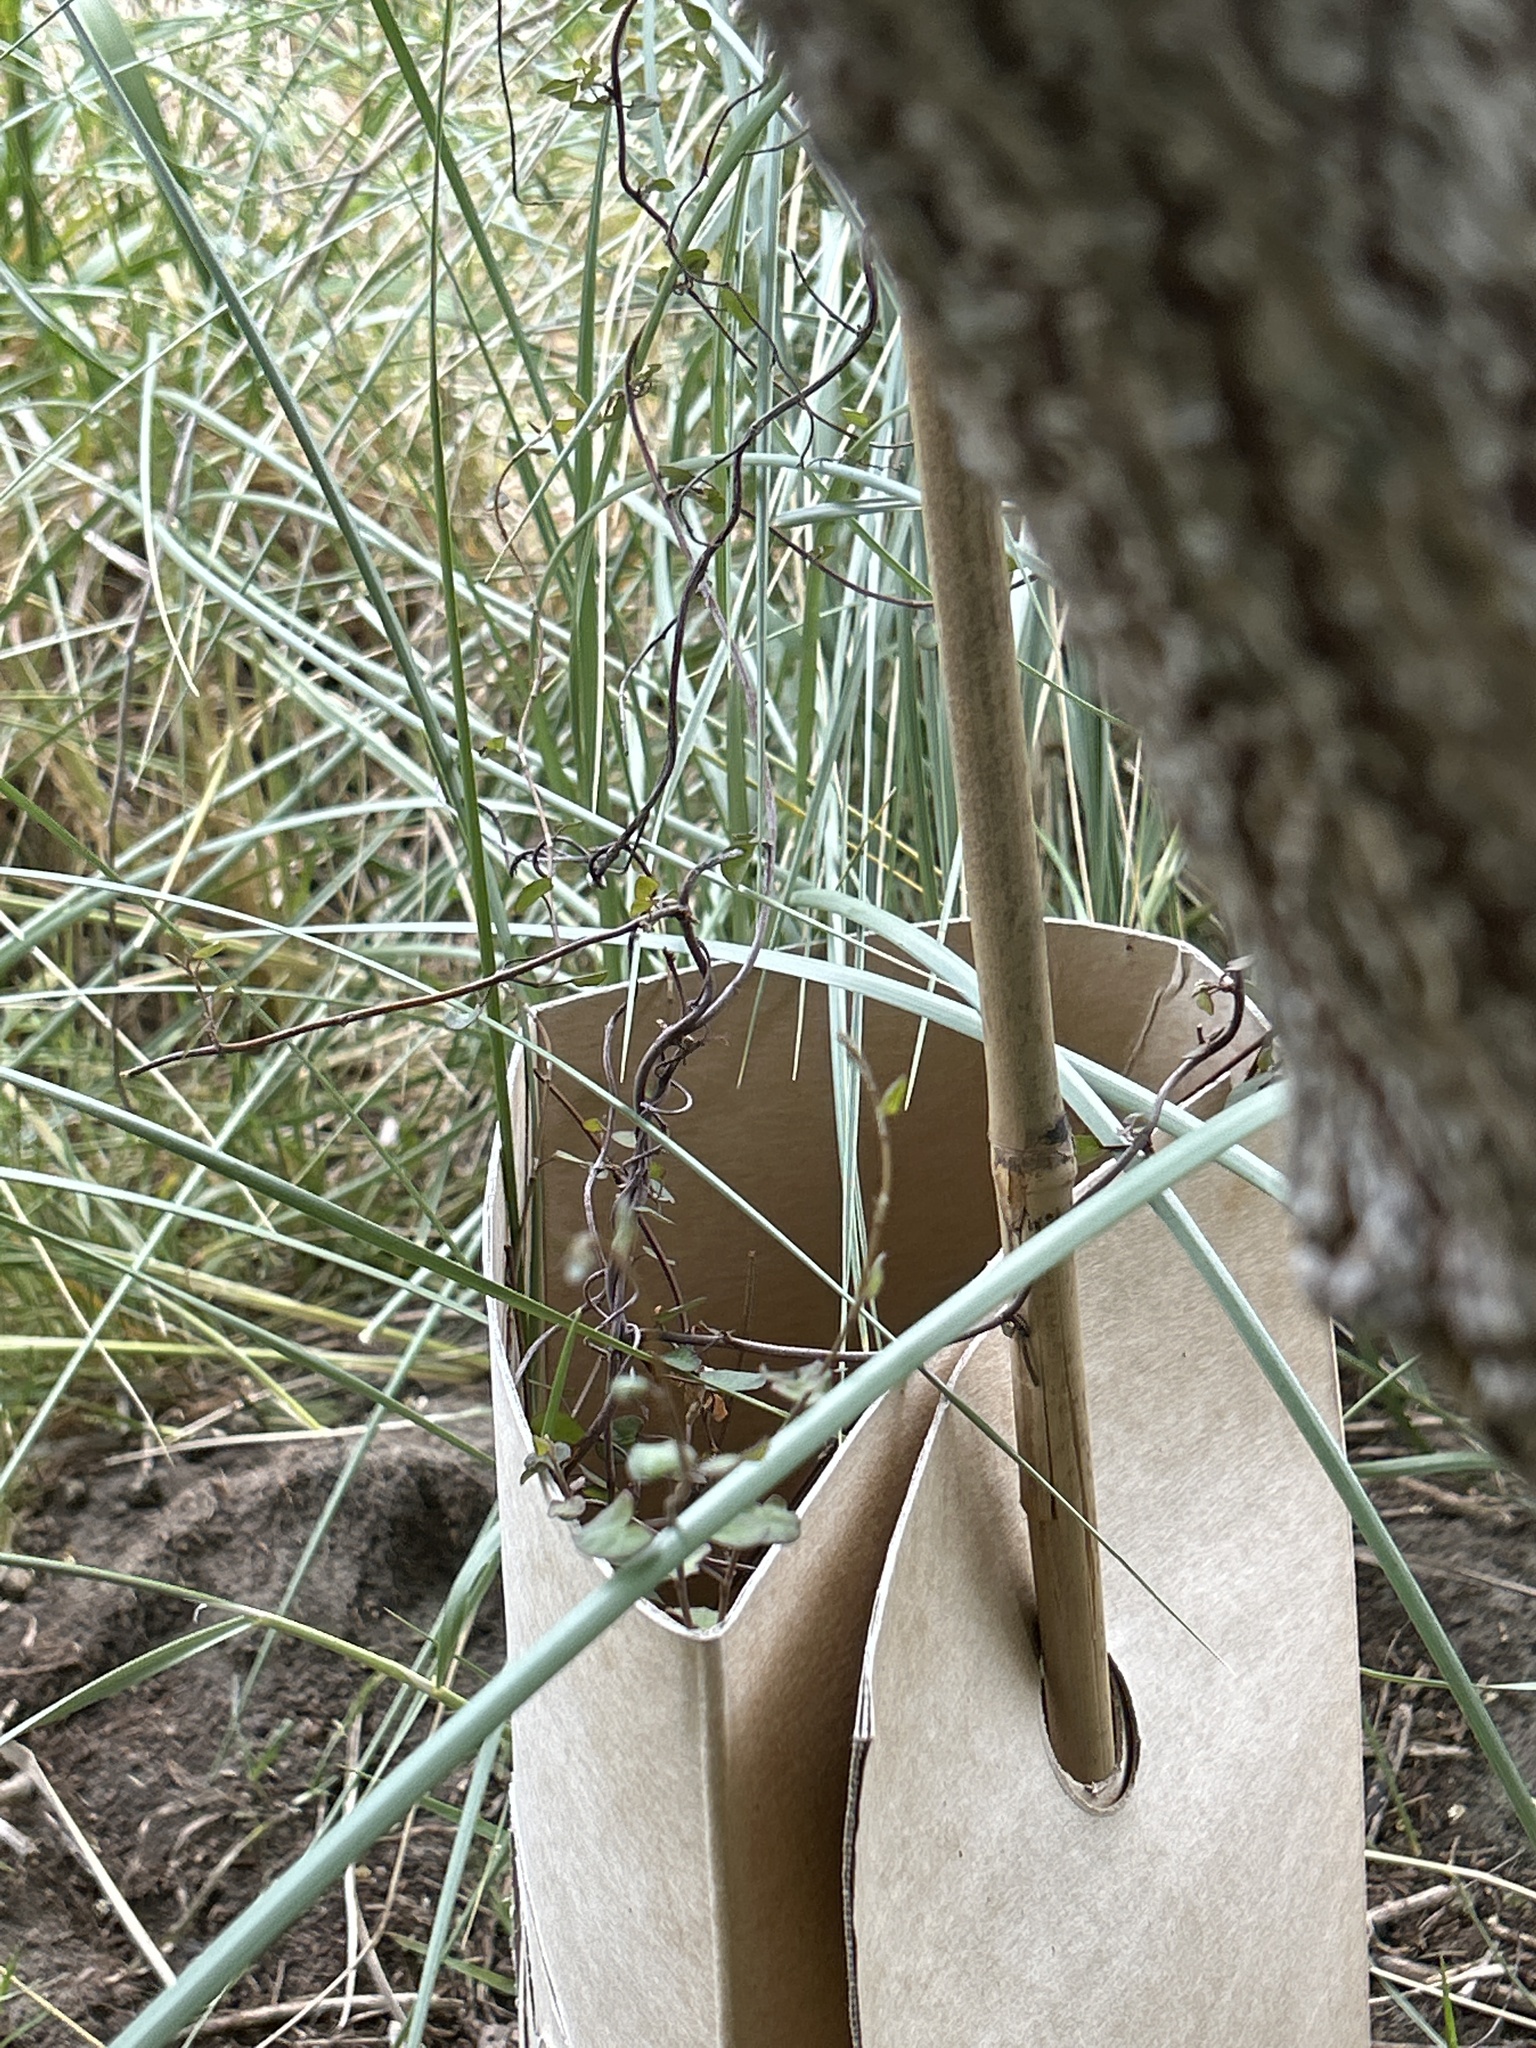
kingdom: Plantae
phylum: Tracheophyta
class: Magnoliopsida
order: Caryophyllales
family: Polygonaceae
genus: Muehlenbeckia
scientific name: Muehlenbeckia complexa
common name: Wireplant
